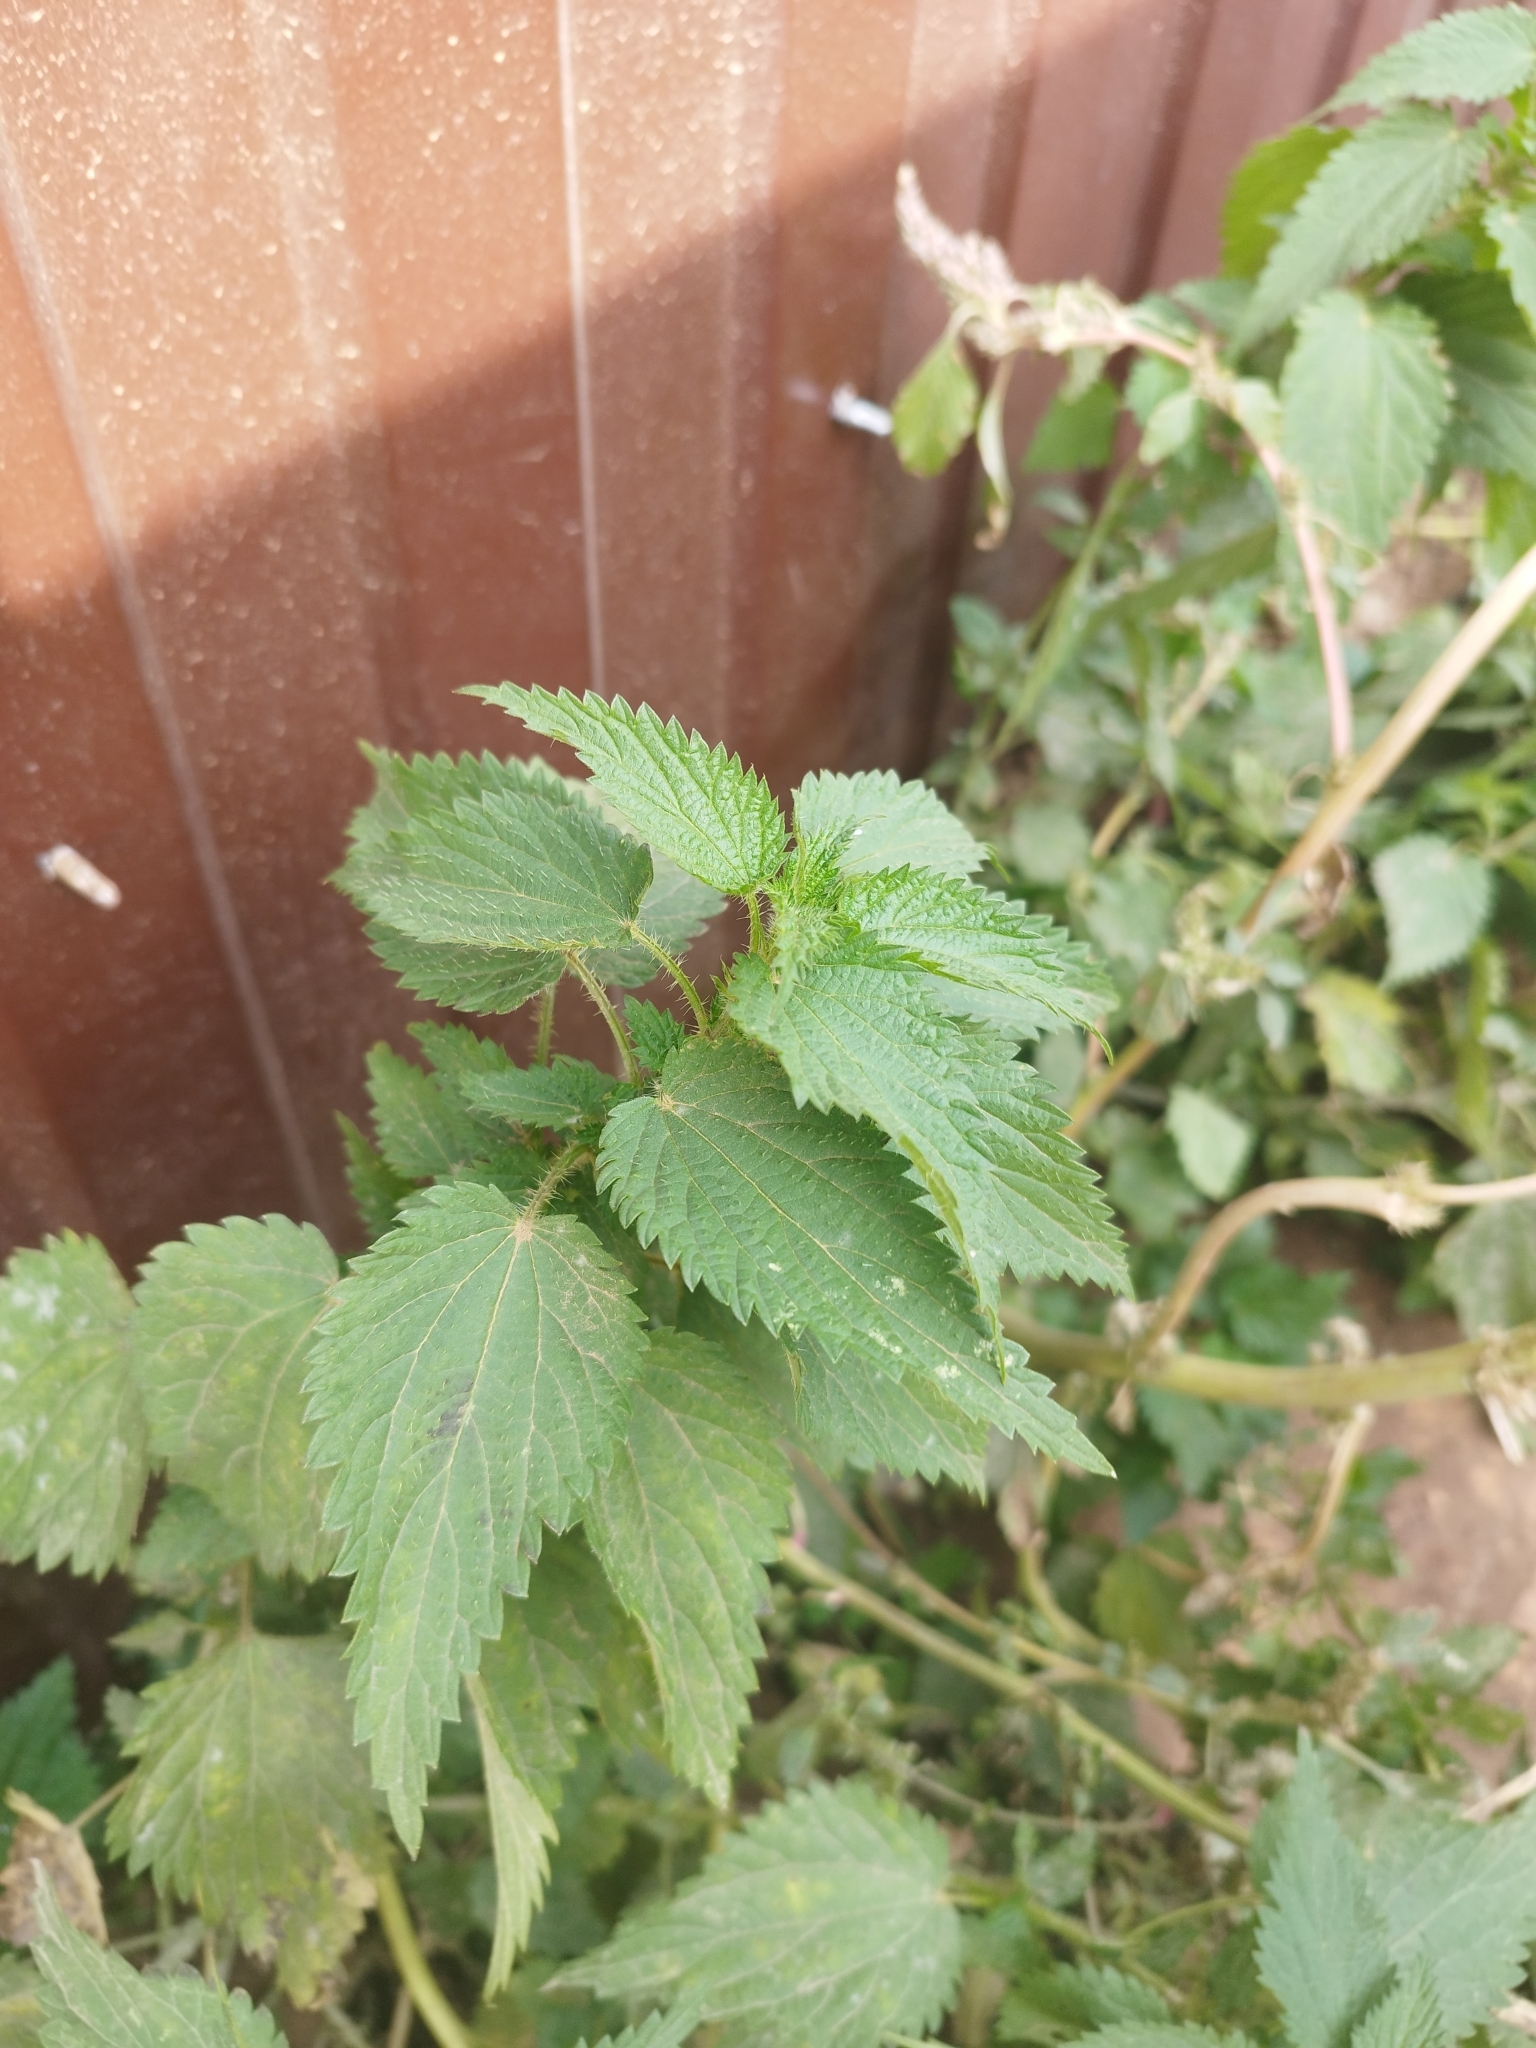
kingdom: Plantae
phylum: Tracheophyta
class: Magnoliopsida
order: Rosales
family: Urticaceae
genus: Urtica
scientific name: Urtica dioica
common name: Common nettle
